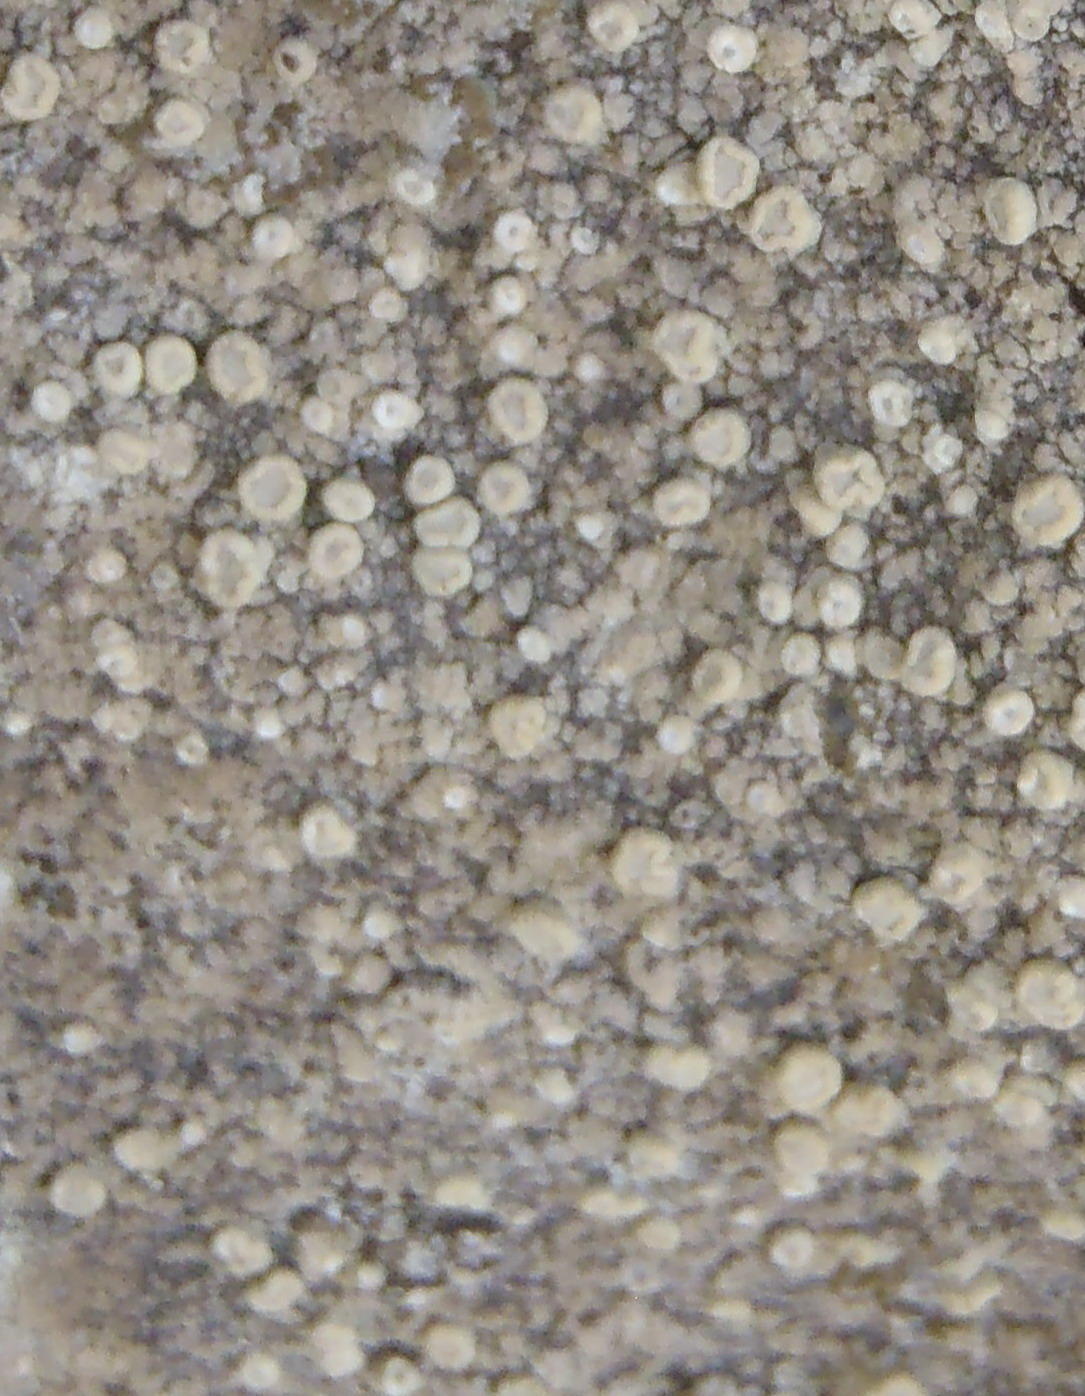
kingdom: Fungi
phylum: Ascomycota
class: Lecanoromycetes
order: Pertusariales
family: Ochrolechiaceae
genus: Ochrolechia
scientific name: Ochrolechia parella
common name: Crab's eye lichen
